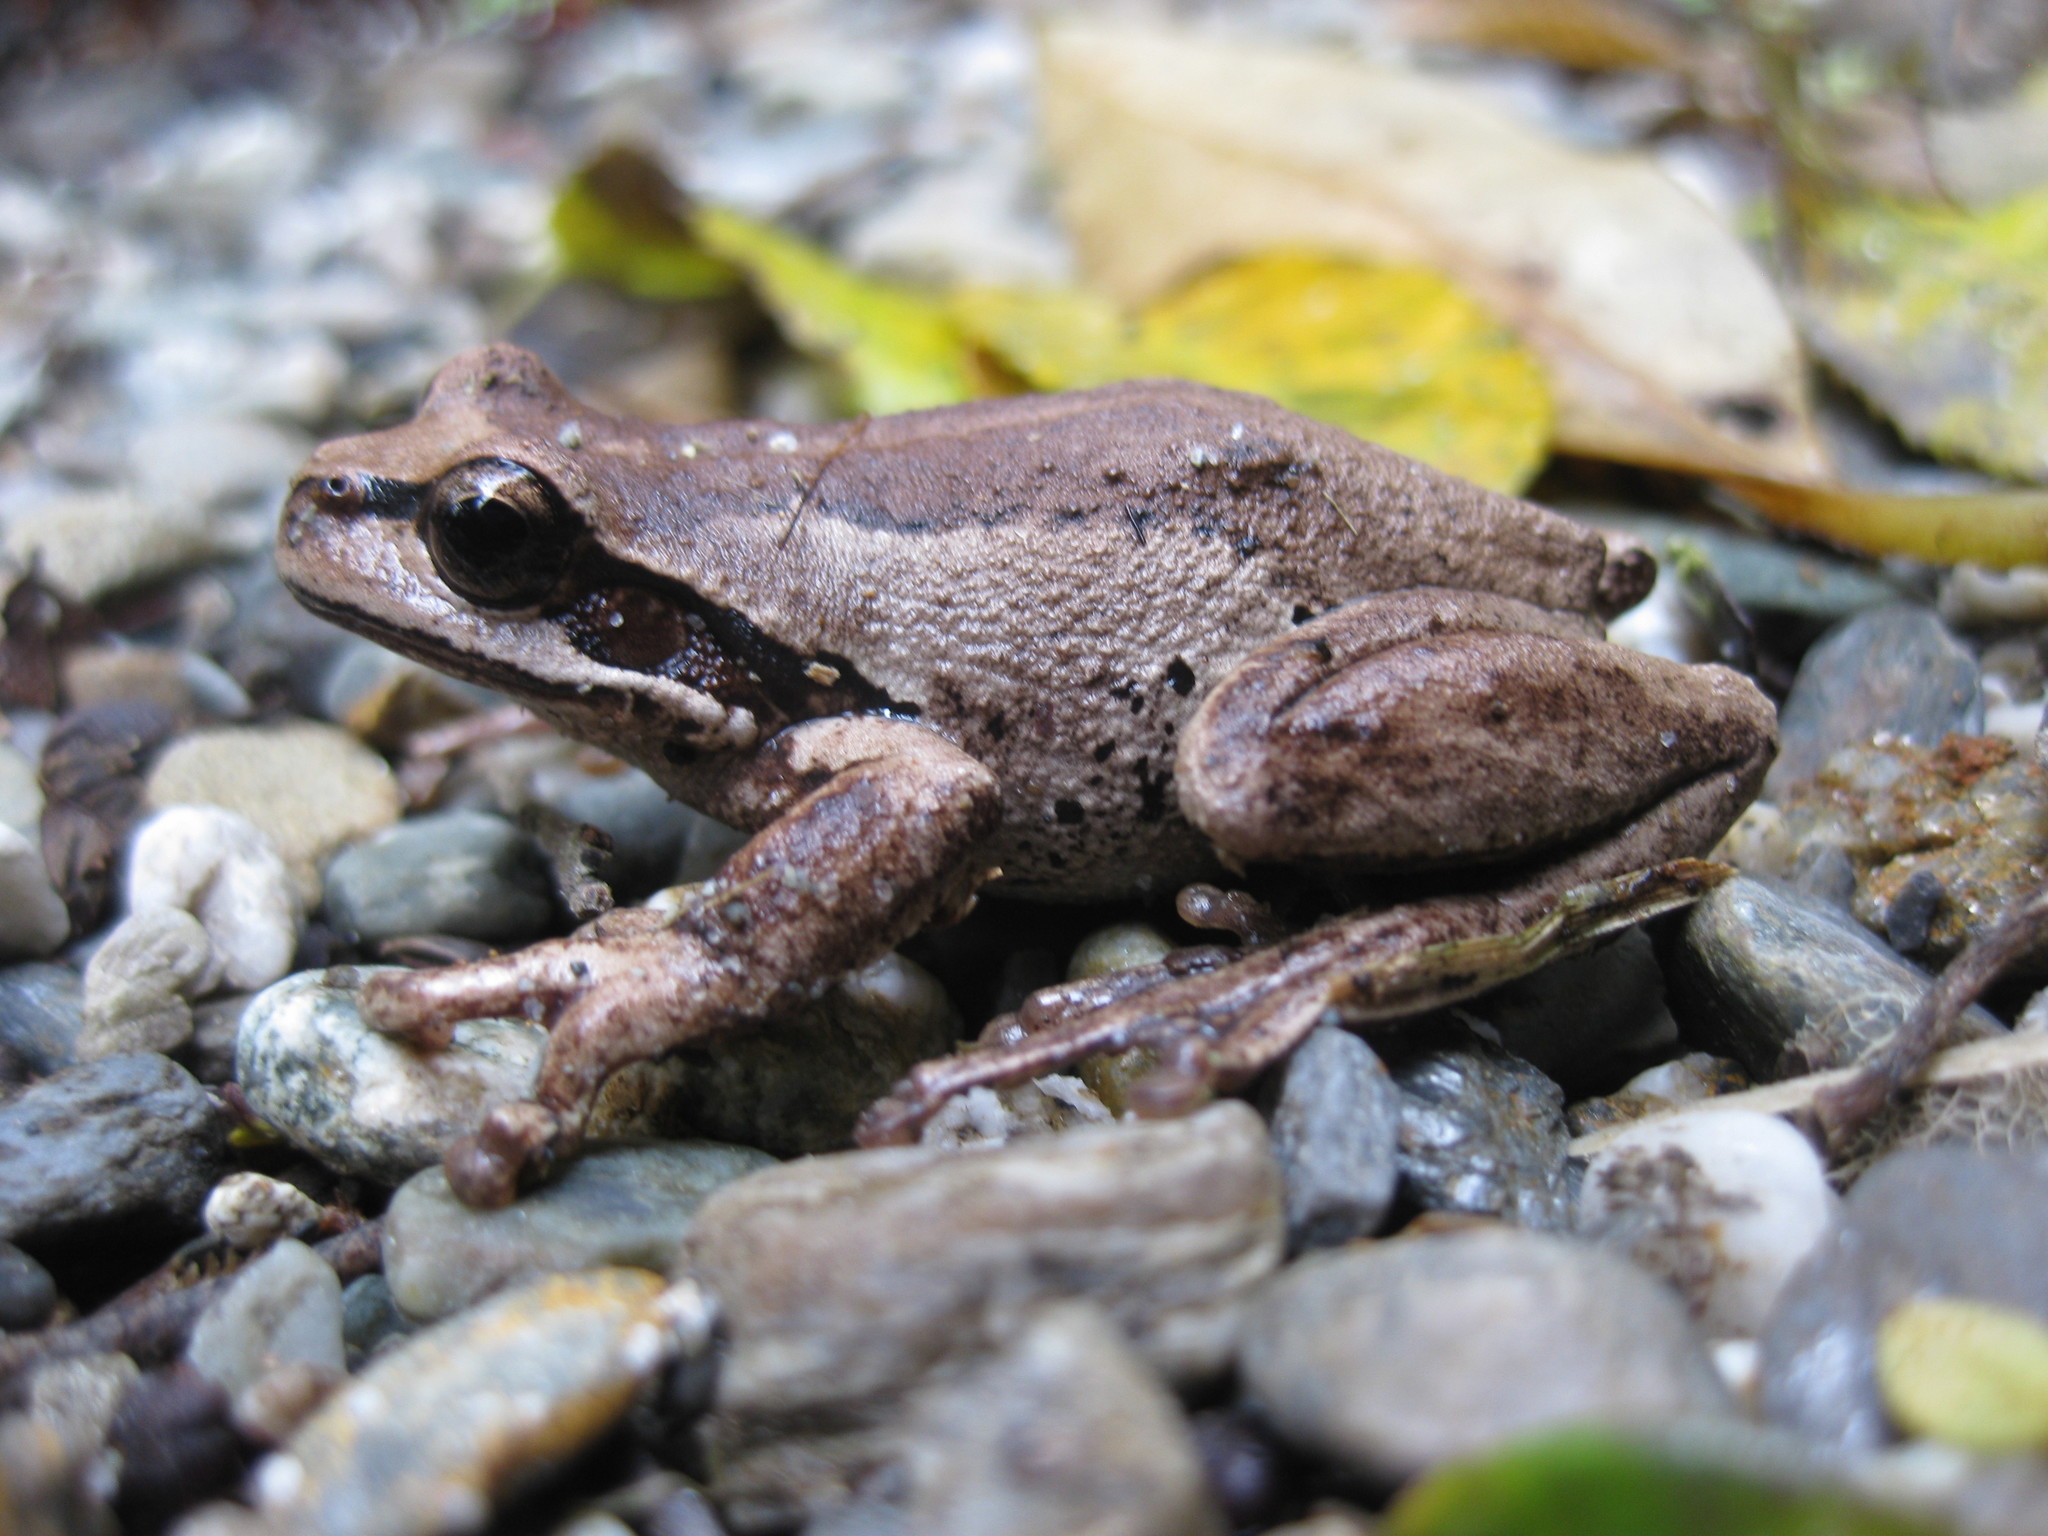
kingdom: Animalia
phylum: Chordata
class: Amphibia
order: Anura
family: Pelodryadidae
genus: Litoria
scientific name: Litoria ewingii
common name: Southern brown tree frog
